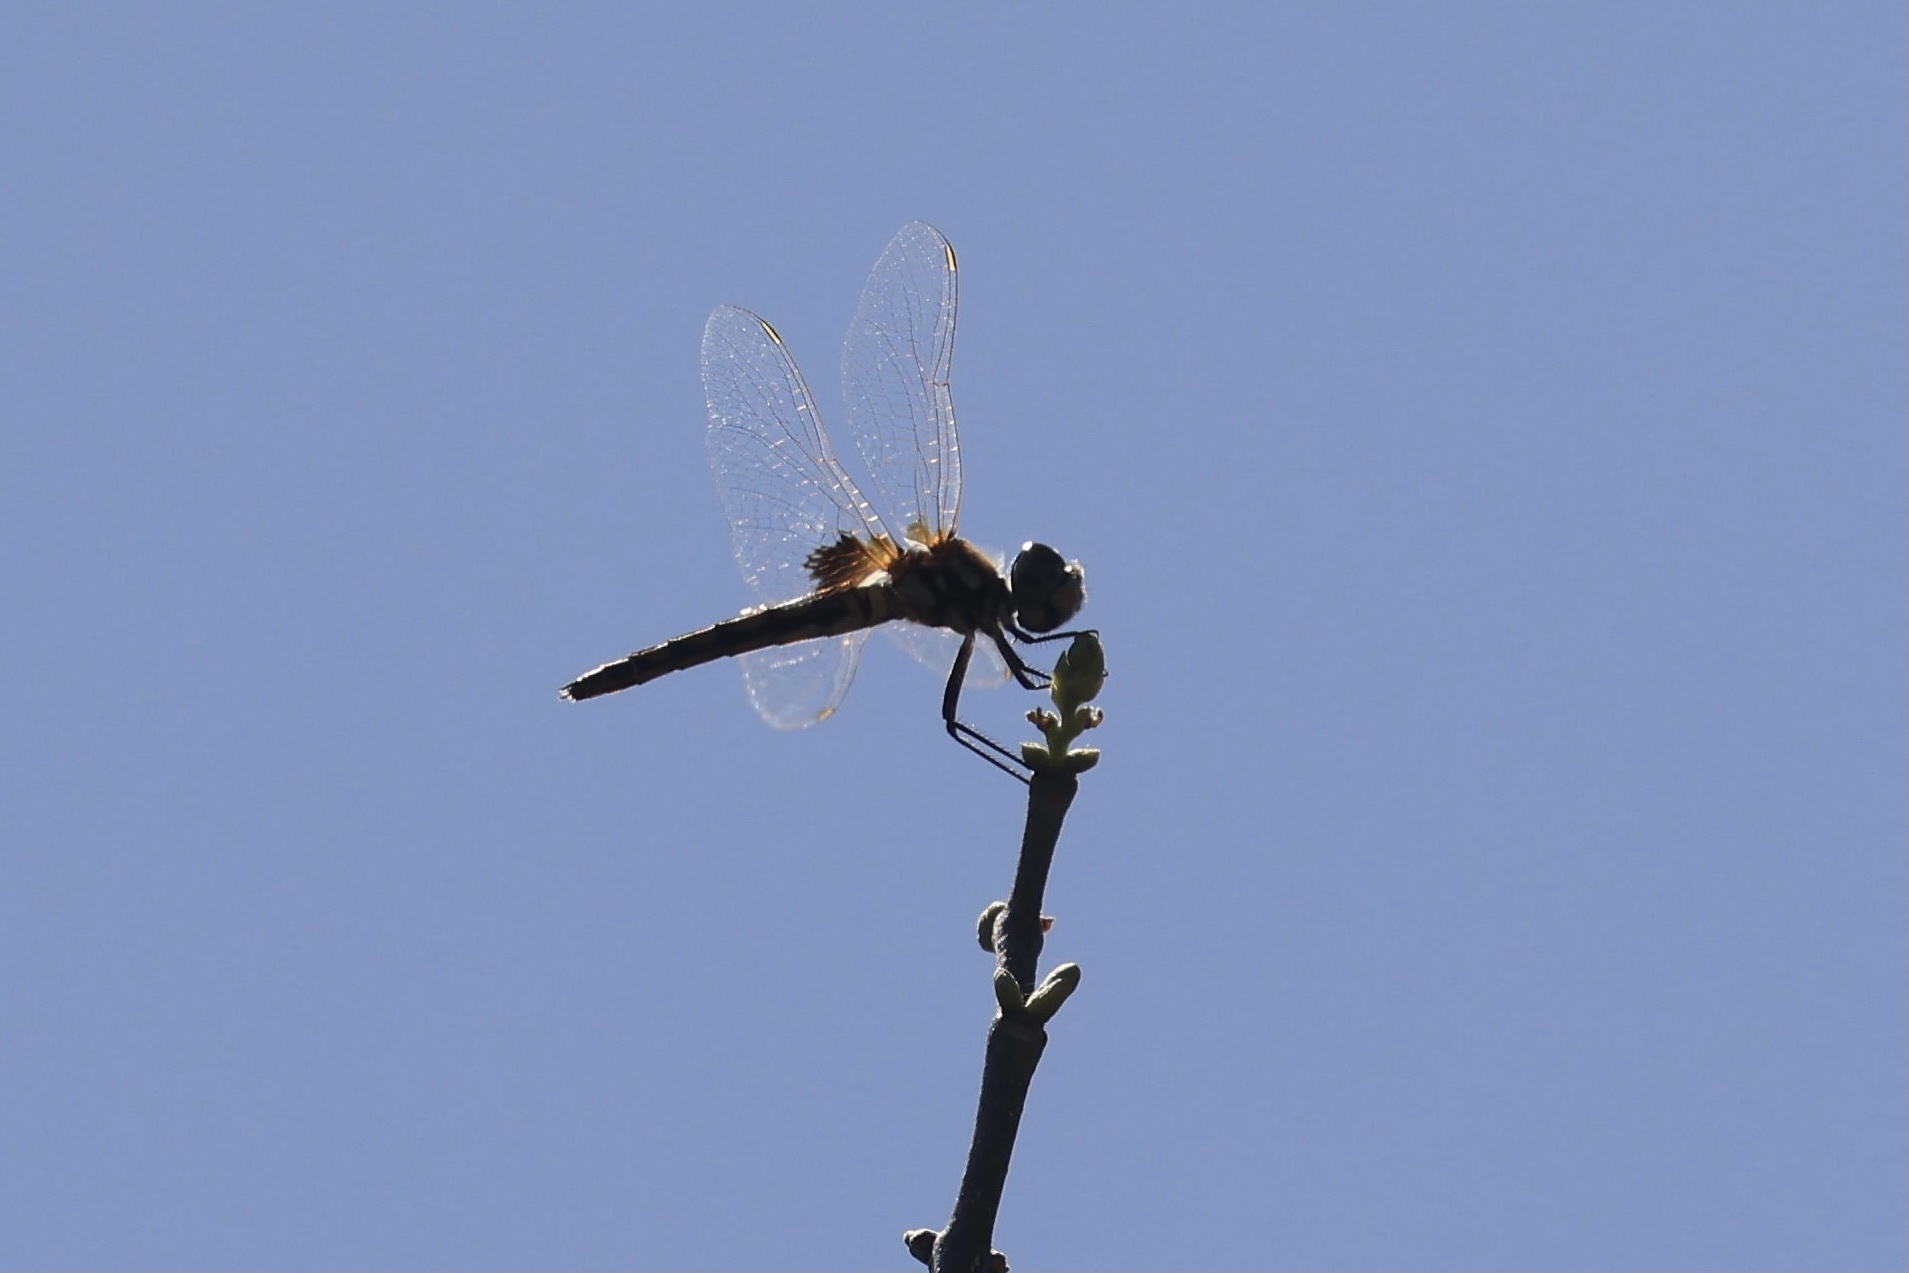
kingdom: Animalia
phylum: Arthropoda
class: Insecta
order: Odonata
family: Libellulidae
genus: Macrodiplax
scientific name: Macrodiplax balteata
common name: Marl pennant
